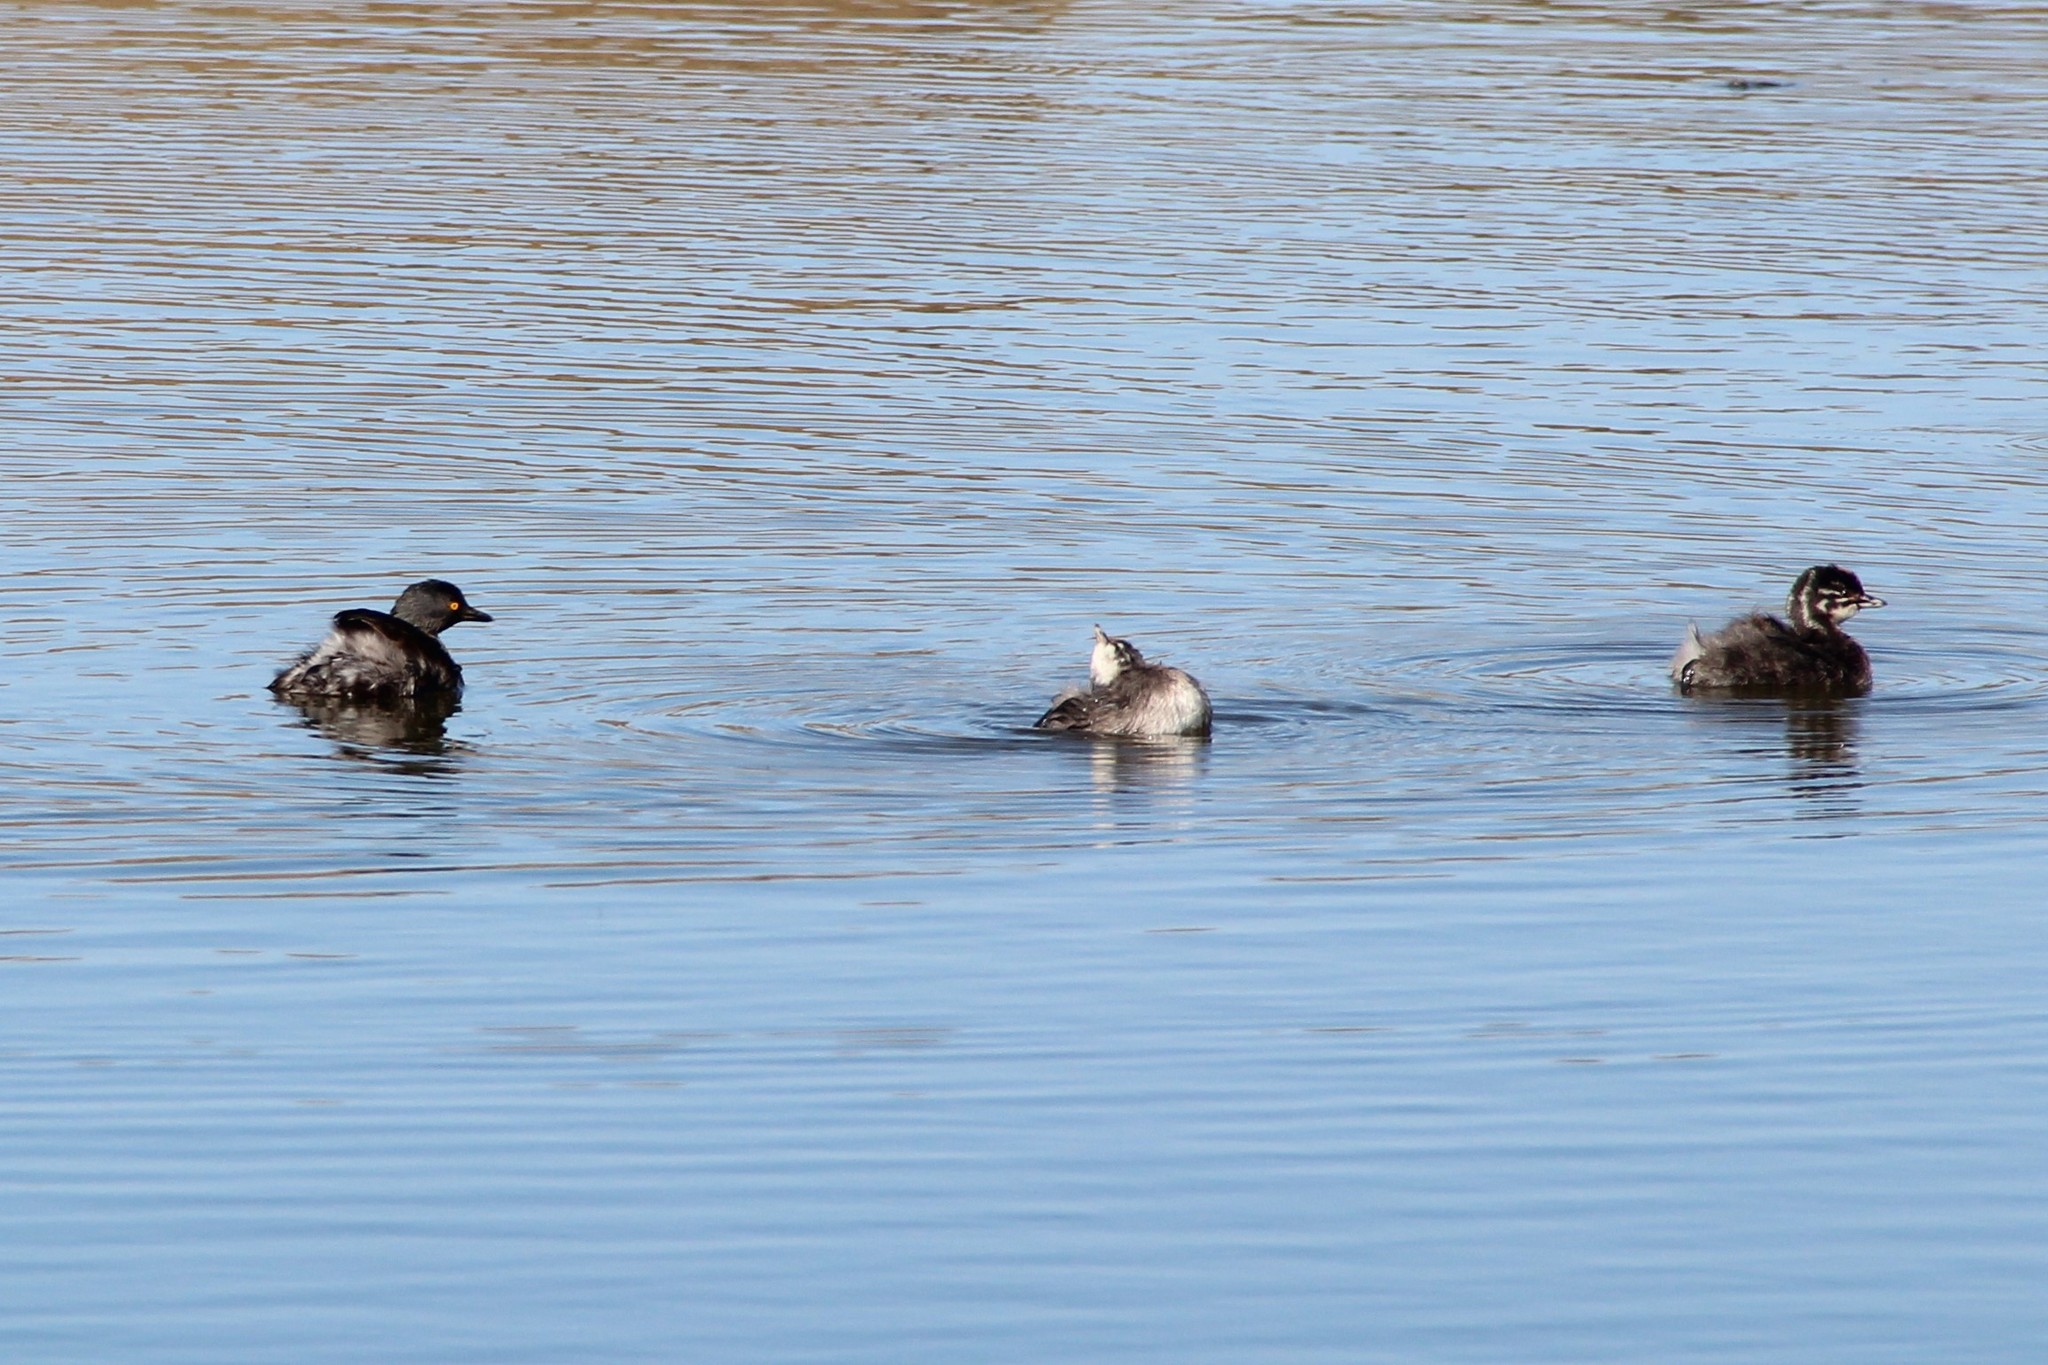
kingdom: Animalia
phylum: Chordata
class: Aves
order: Podicipediformes
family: Podicipedidae
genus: Tachybaptus
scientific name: Tachybaptus dominicus
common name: Least grebe
